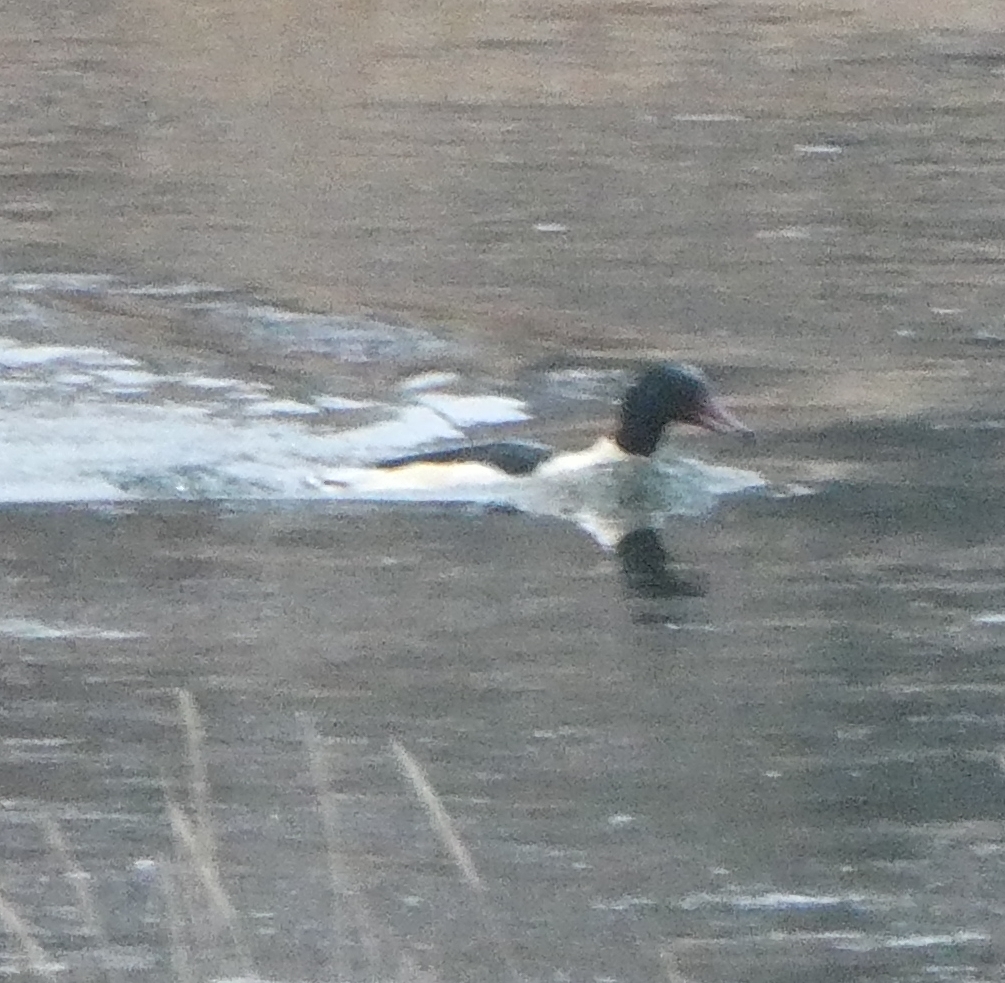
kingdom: Animalia
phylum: Chordata
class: Aves
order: Anseriformes
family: Anatidae
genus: Mergus
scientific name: Mergus merganser
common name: Common merganser
